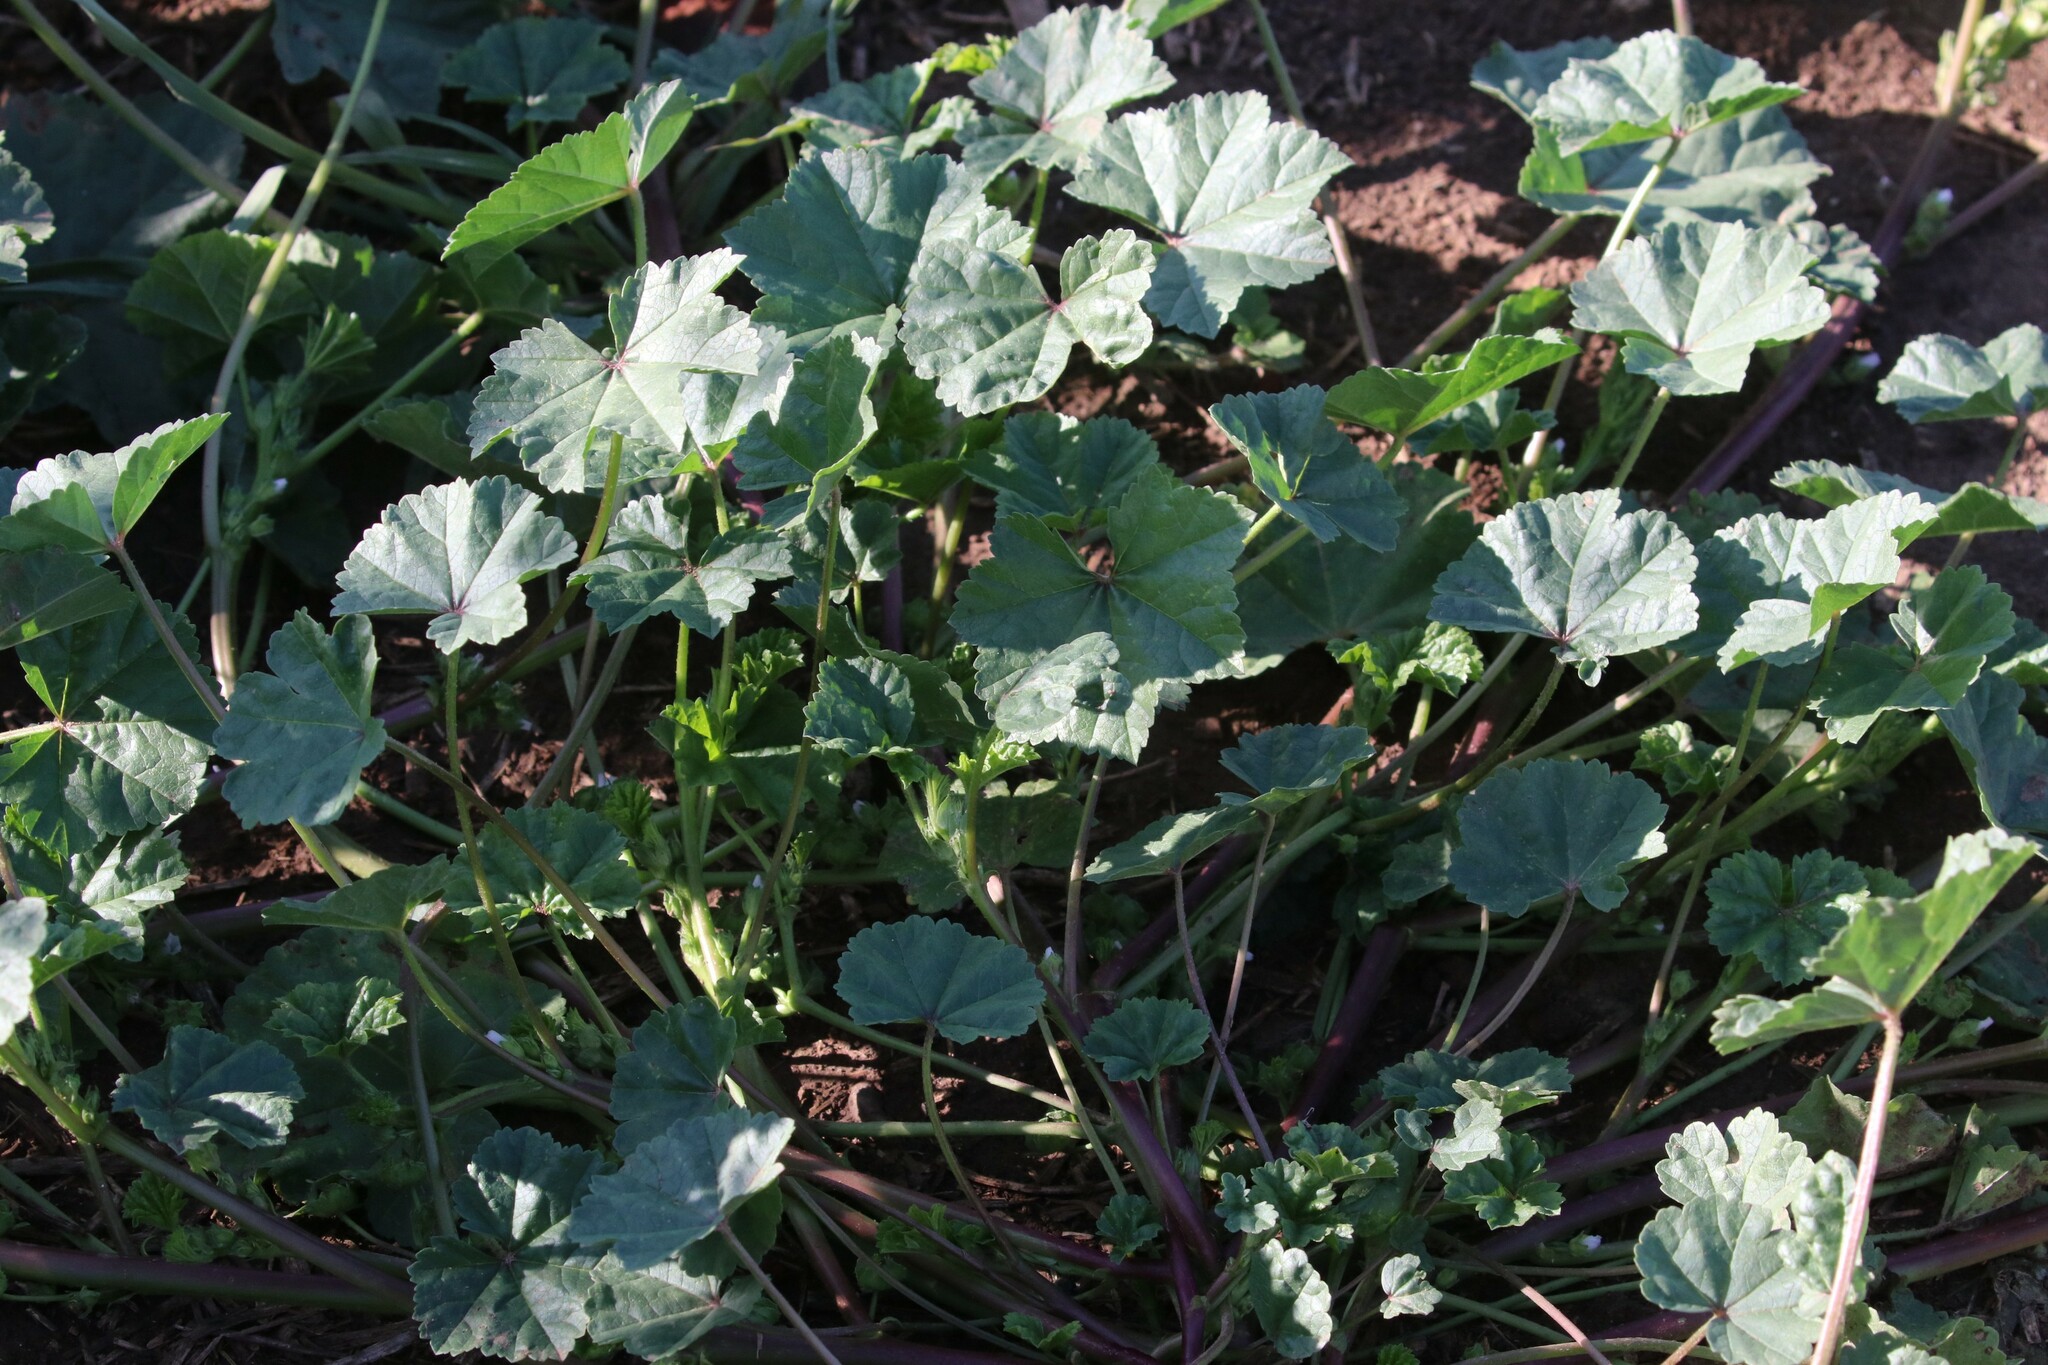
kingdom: Plantae
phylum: Tracheophyta
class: Magnoliopsida
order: Malvales
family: Malvaceae
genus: Malva
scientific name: Malva pusilla
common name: Small mallow
